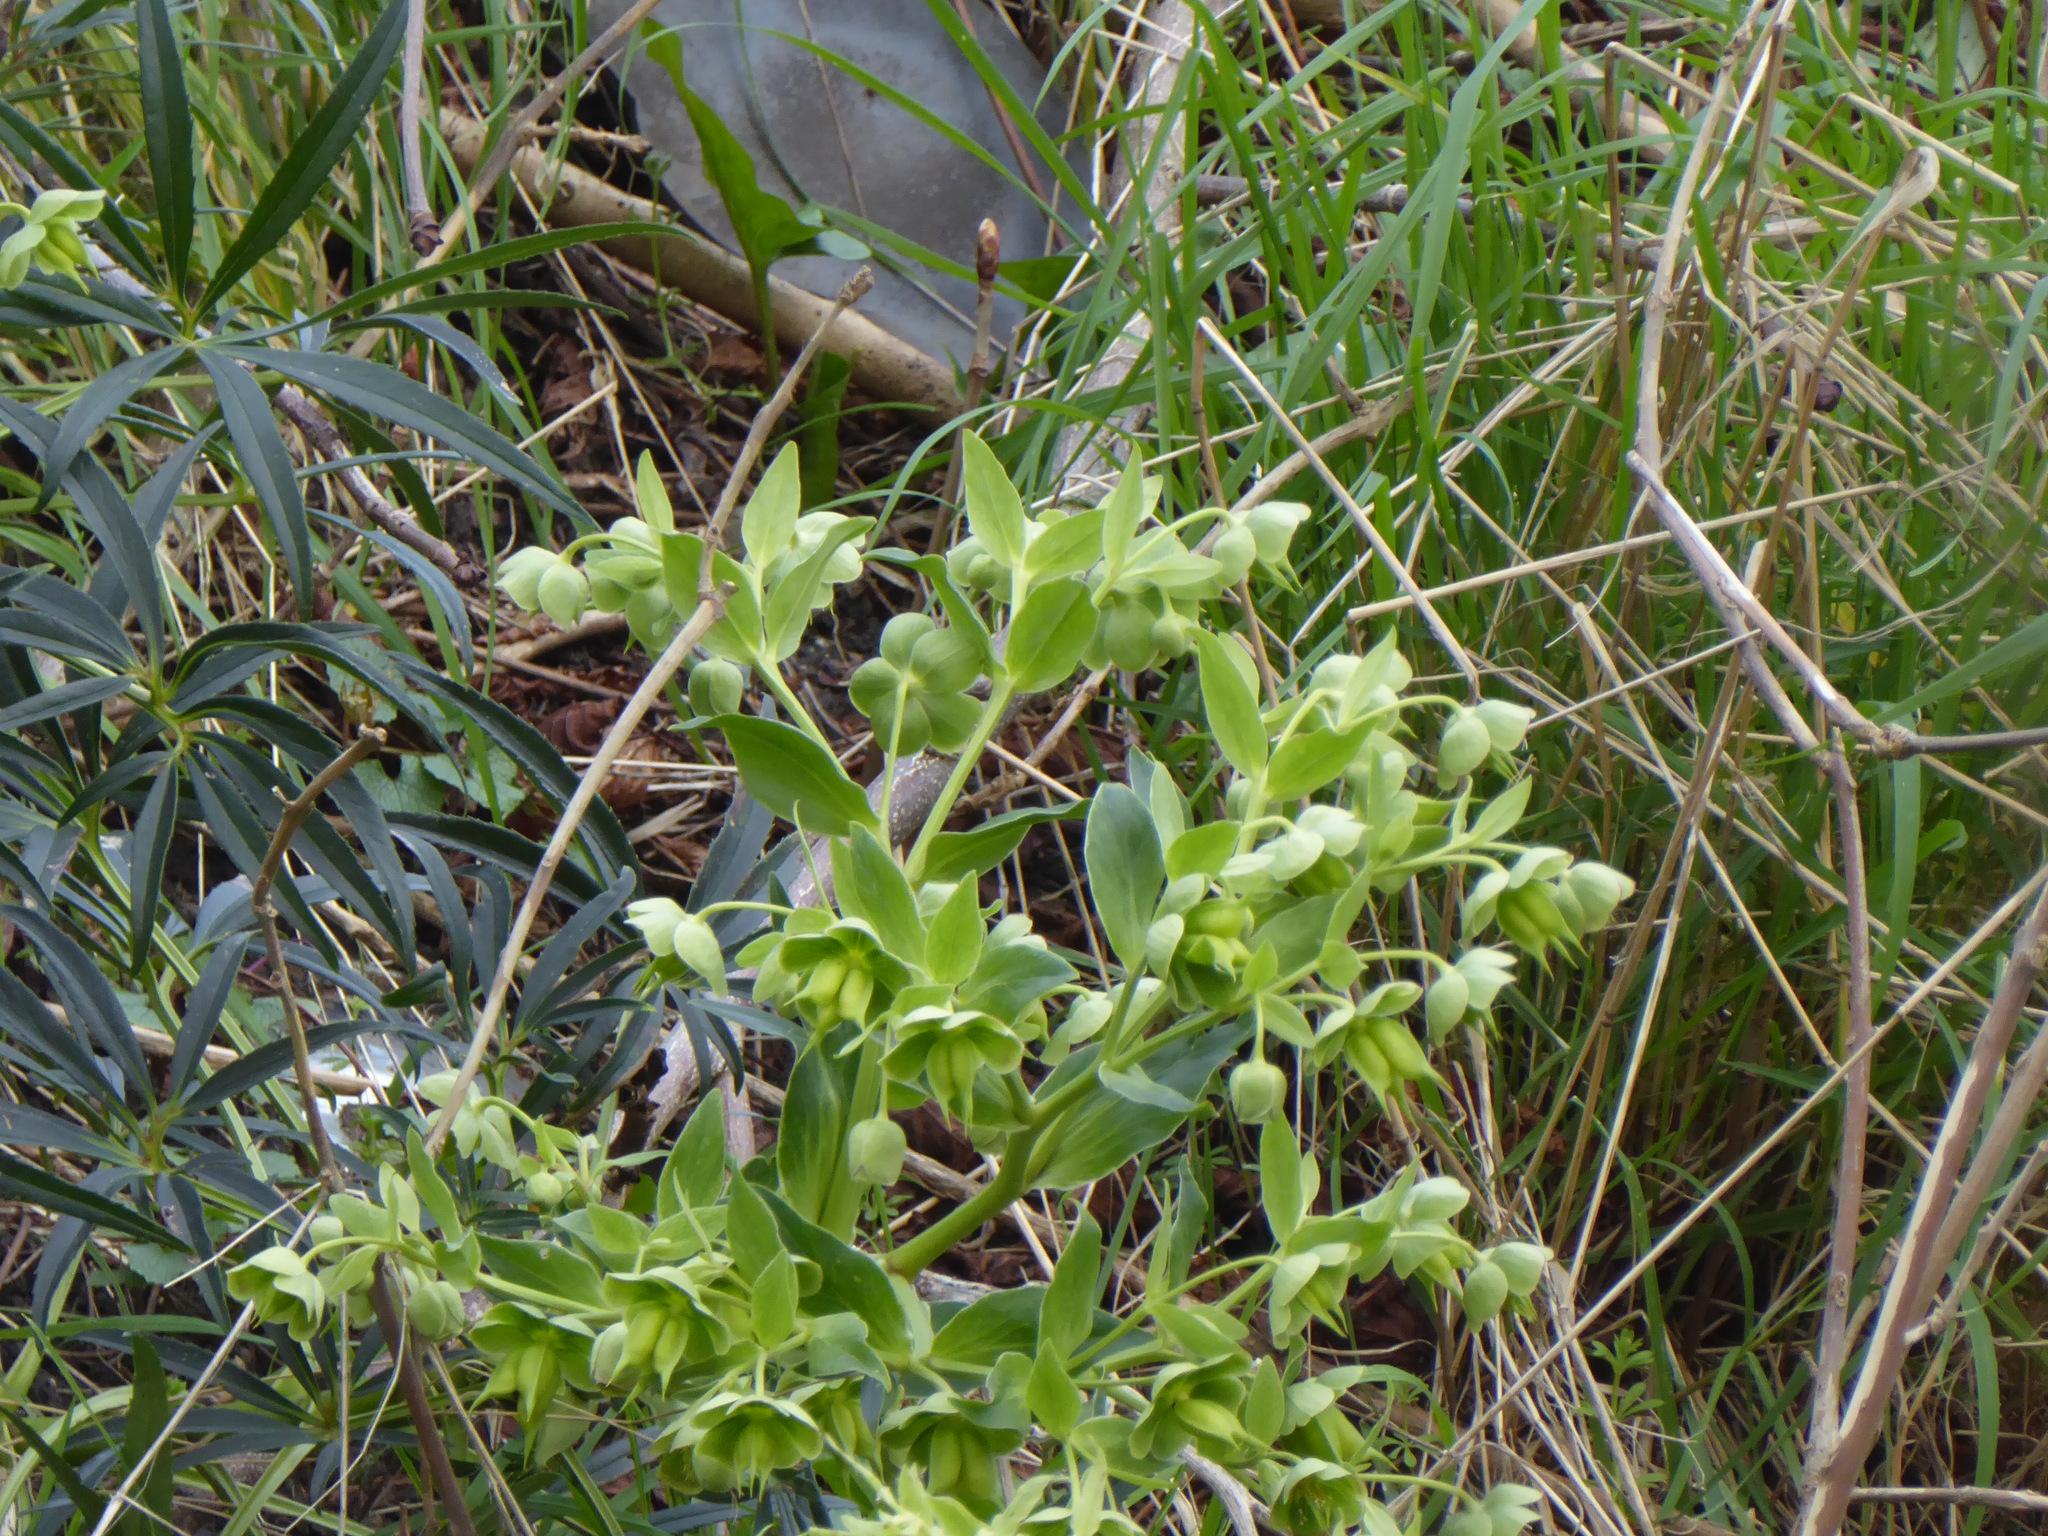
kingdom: Plantae
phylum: Tracheophyta
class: Magnoliopsida
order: Ranunculales
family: Ranunculaceae
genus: Helleborus
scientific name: Helleborus foetidus
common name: Stinking hellebore
